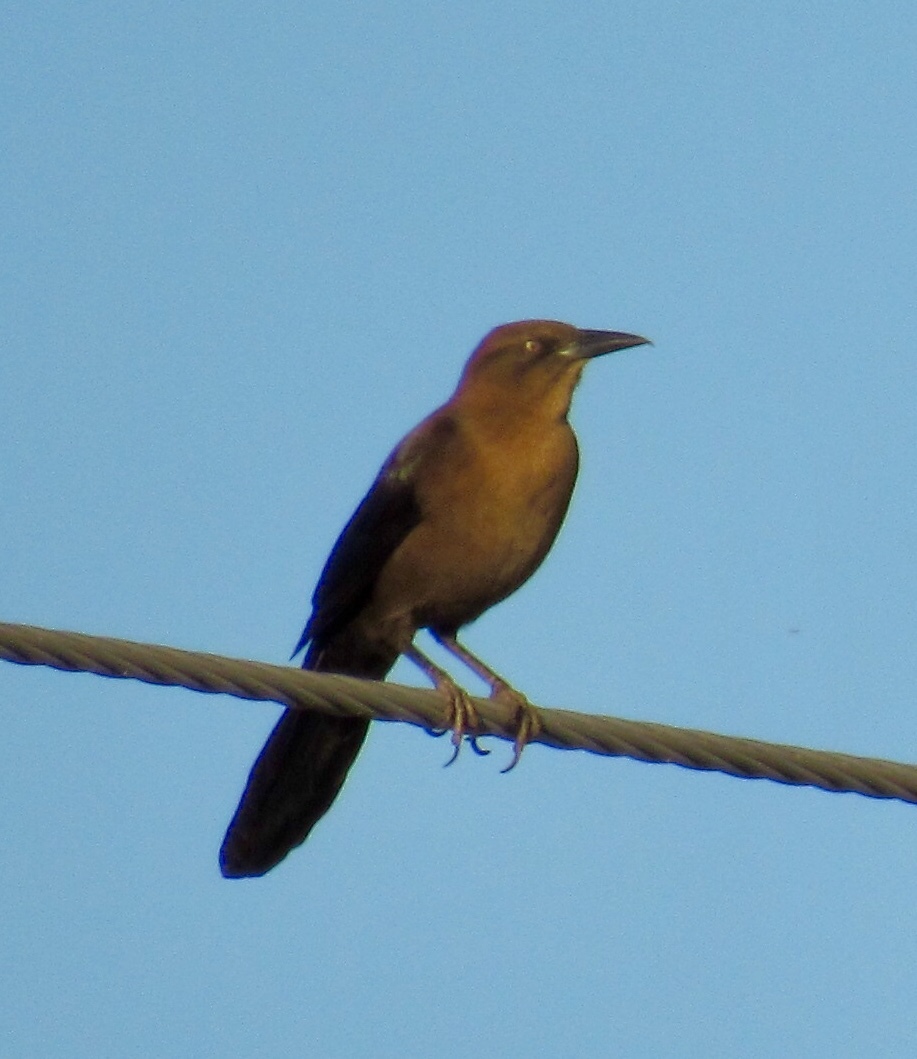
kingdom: Animalia
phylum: Chordata
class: Aves
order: Passeriformes
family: Icteridae
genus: Quiscalus
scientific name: Quiscalus mexicanus
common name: Great-tailed grackle
